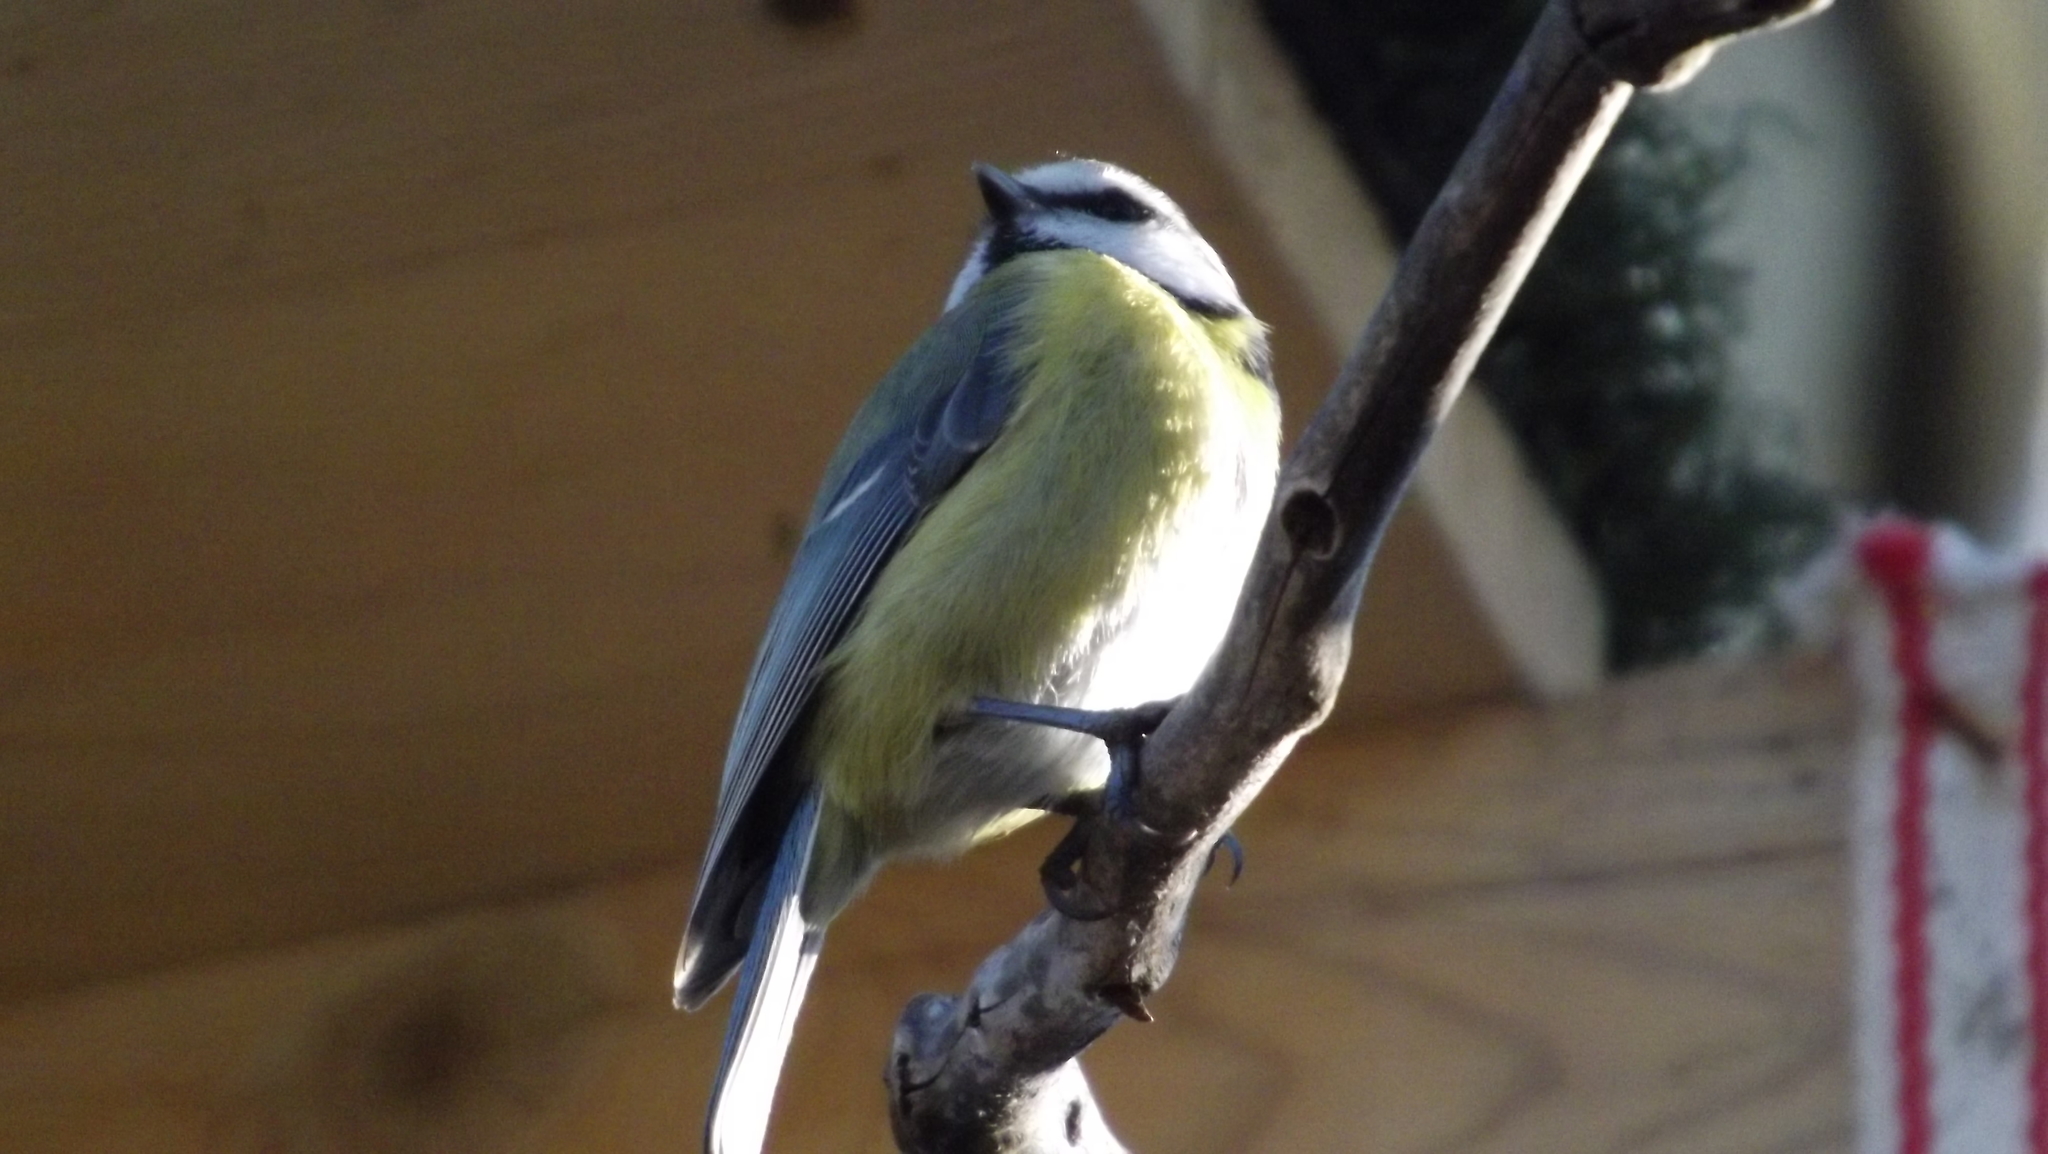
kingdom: Animalia
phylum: Chordata
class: Aves
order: Passeriformes
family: Paridae
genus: Cyanistes
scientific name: Cyanistes caeruleus
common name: Eurasian blue tit
